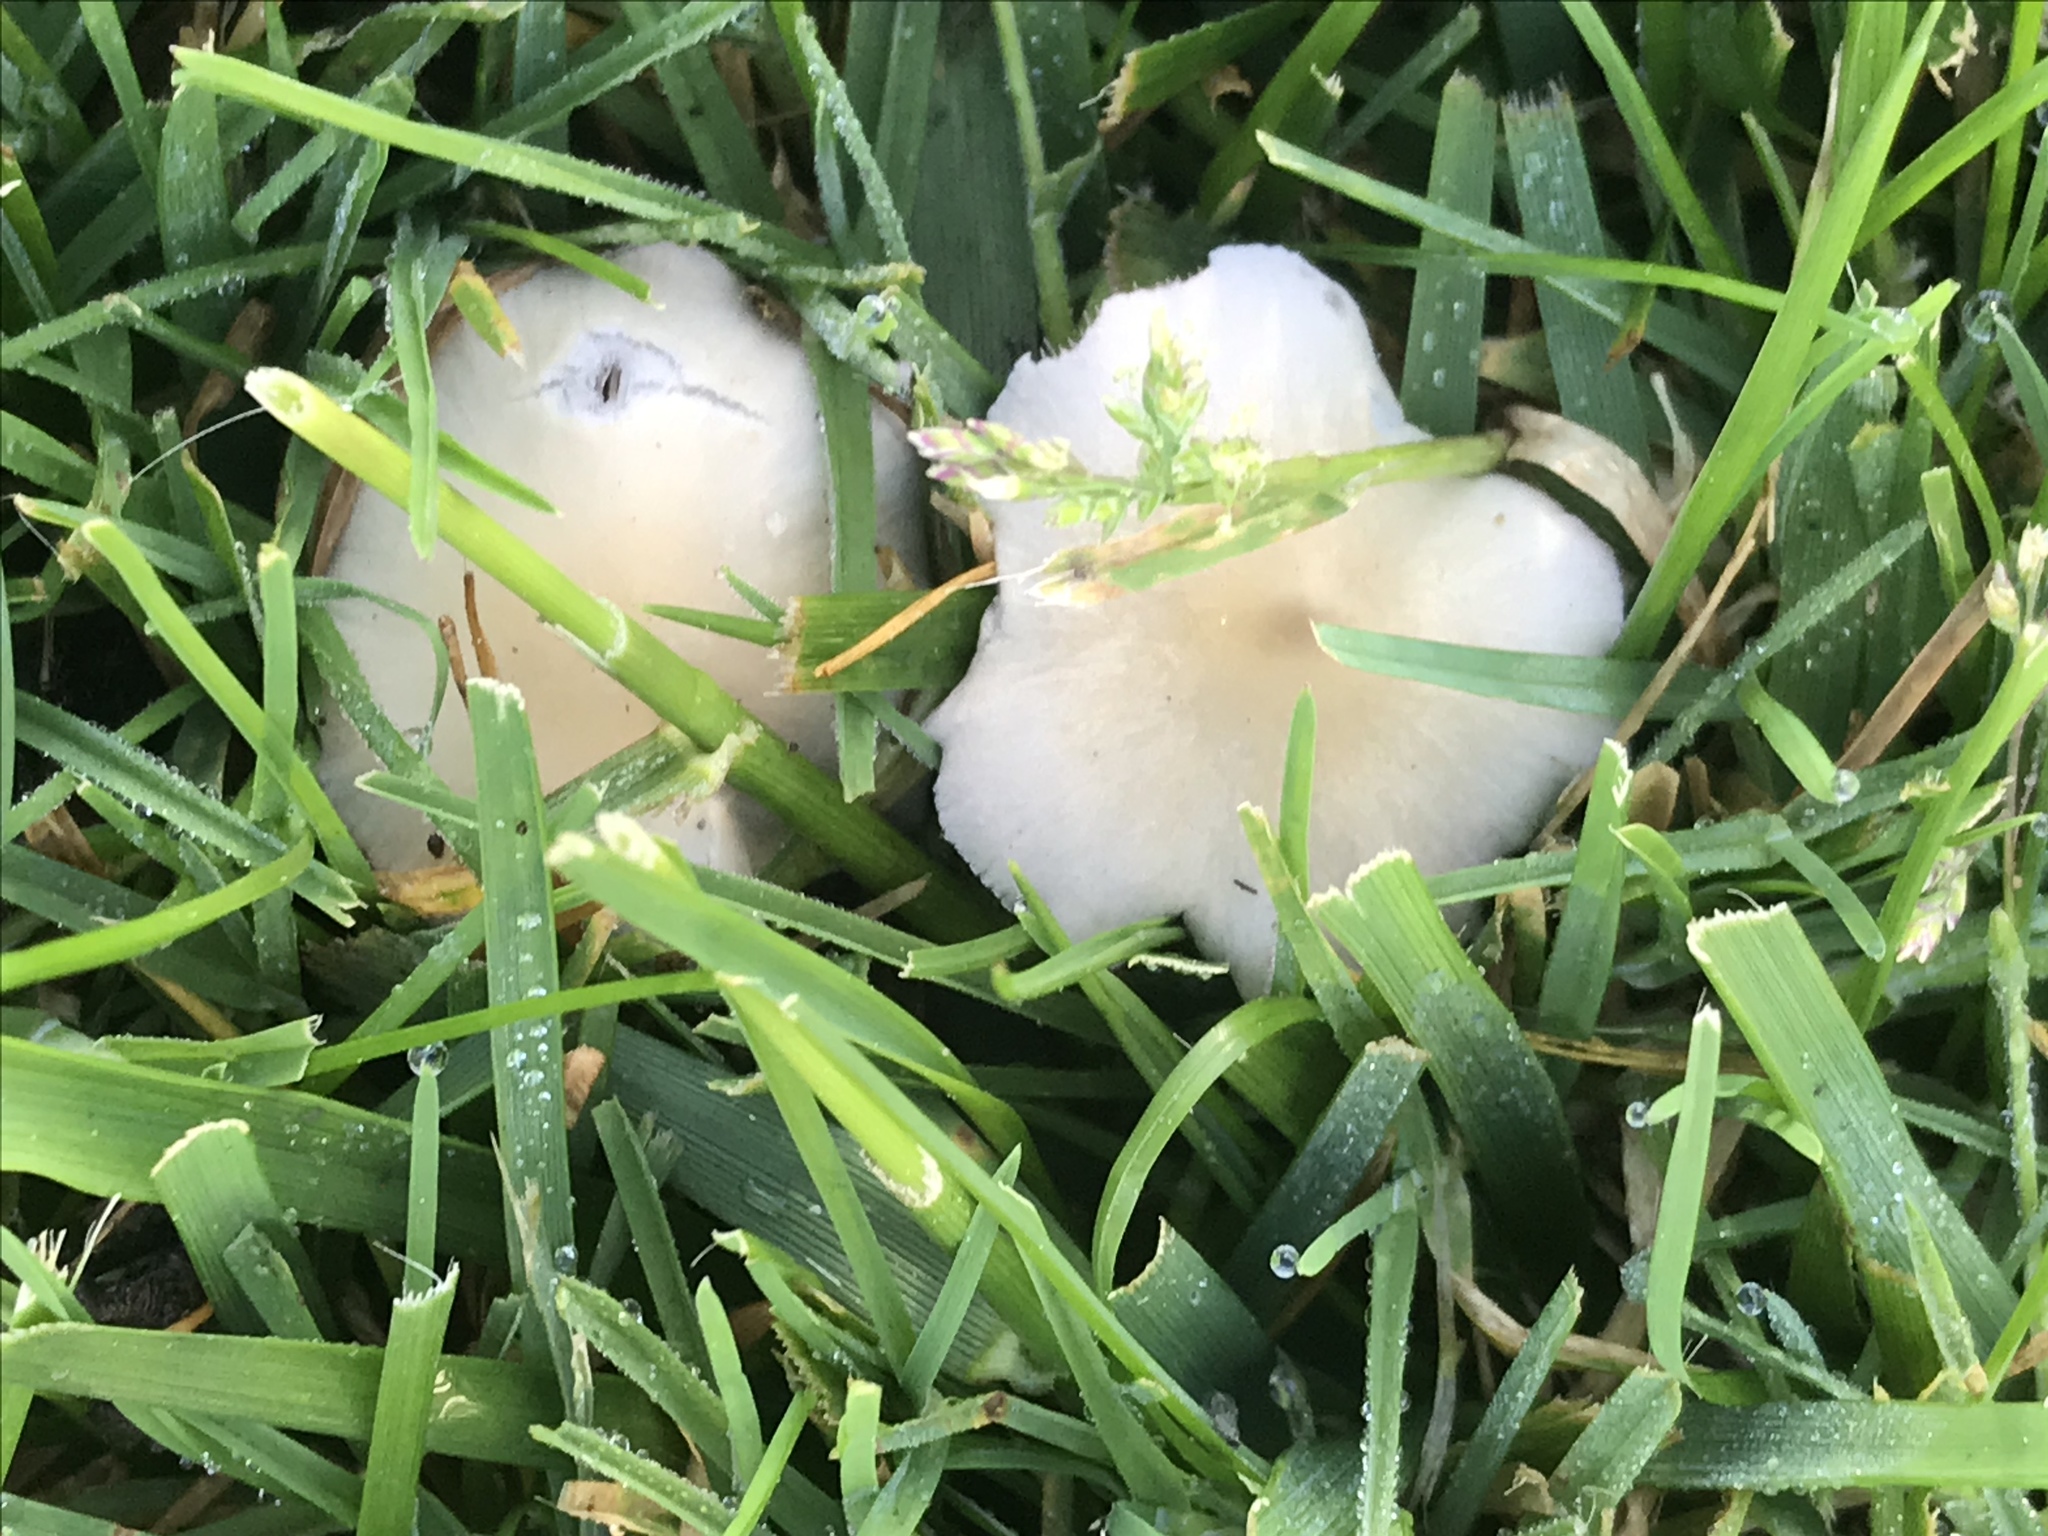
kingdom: Fungi
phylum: Basidiomycota
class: Agaricomycetes
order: Agaricales
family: Psathyrellaceae
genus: Candolleomyces
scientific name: Candolleomyces candolleanus
